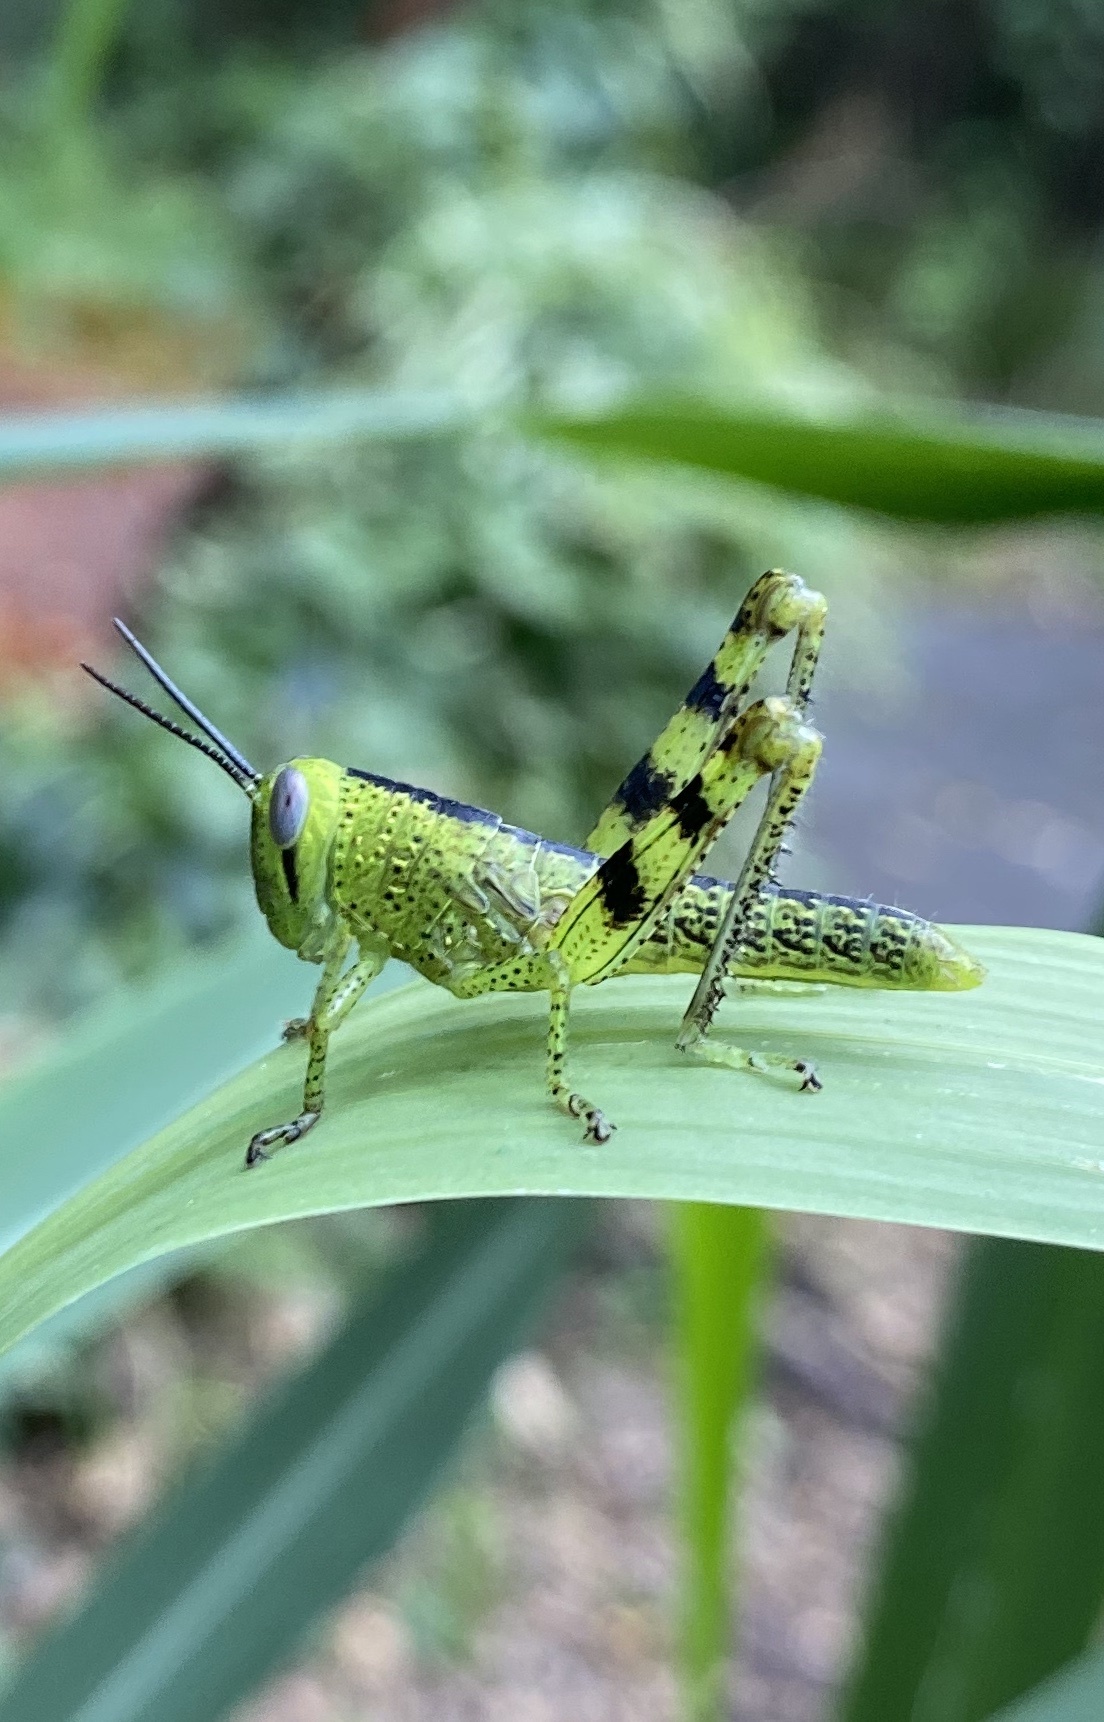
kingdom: Animalia
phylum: Arthropoda
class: Insecta
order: Orthoptera
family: Acrididae
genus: Valanga
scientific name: Valanga irregularis
